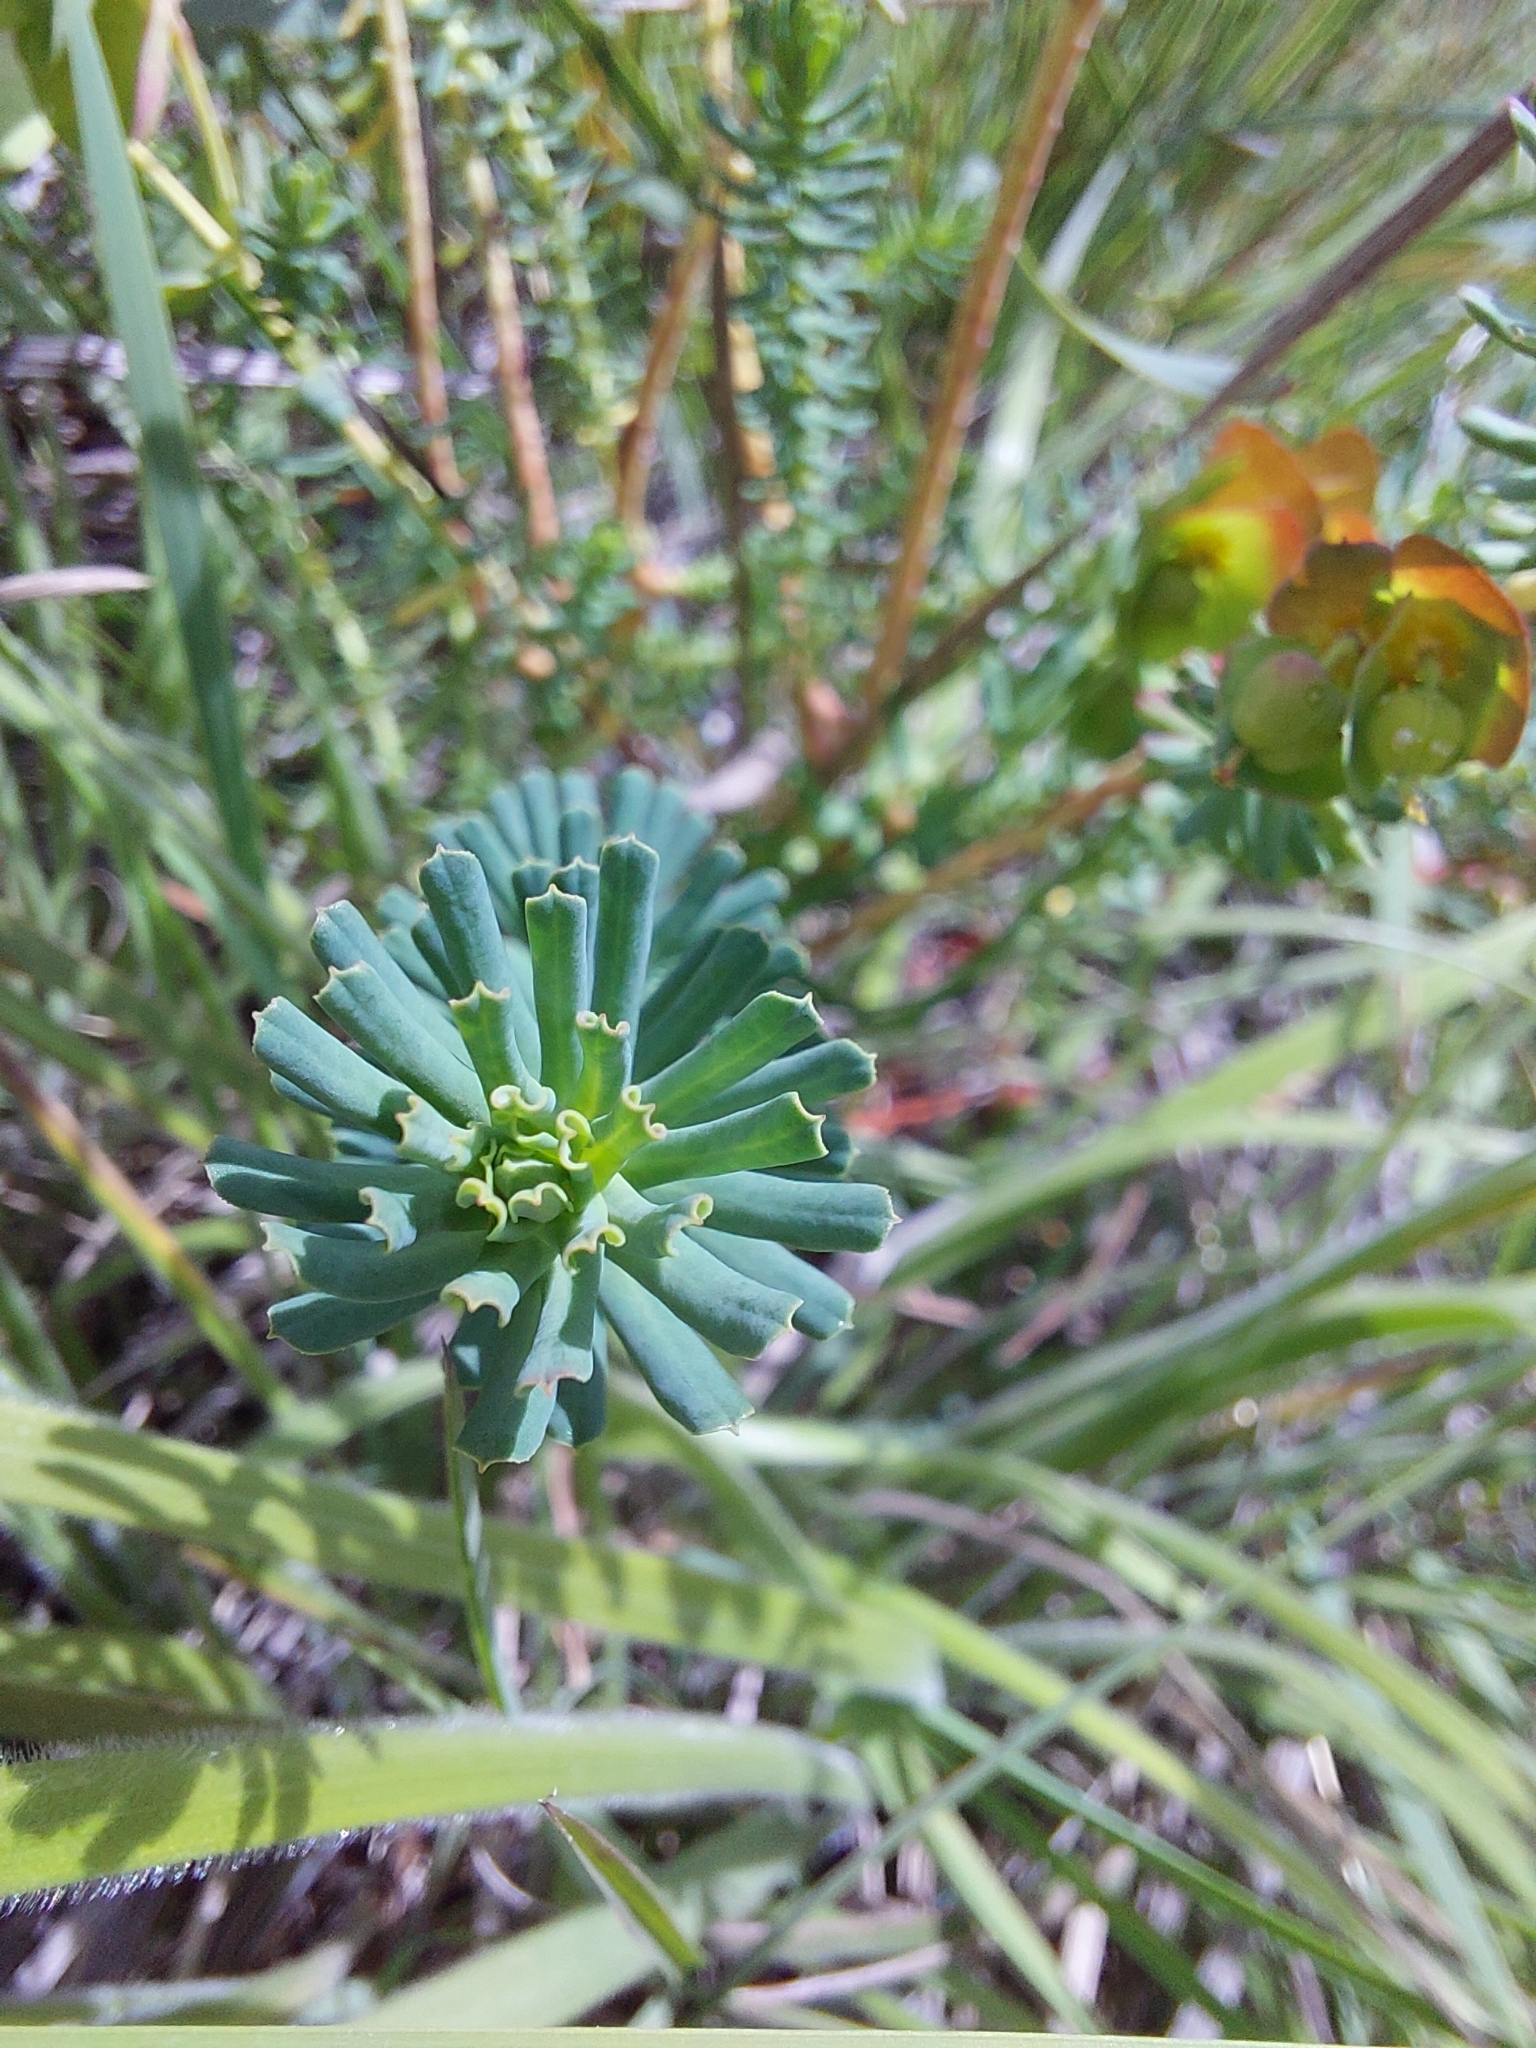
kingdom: Plantae
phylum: Tracheophyta
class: Magnoliopsida
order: Malpighiales
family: Euphorbiaceae
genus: Euphorbia
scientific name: Euphorbia natalensis
